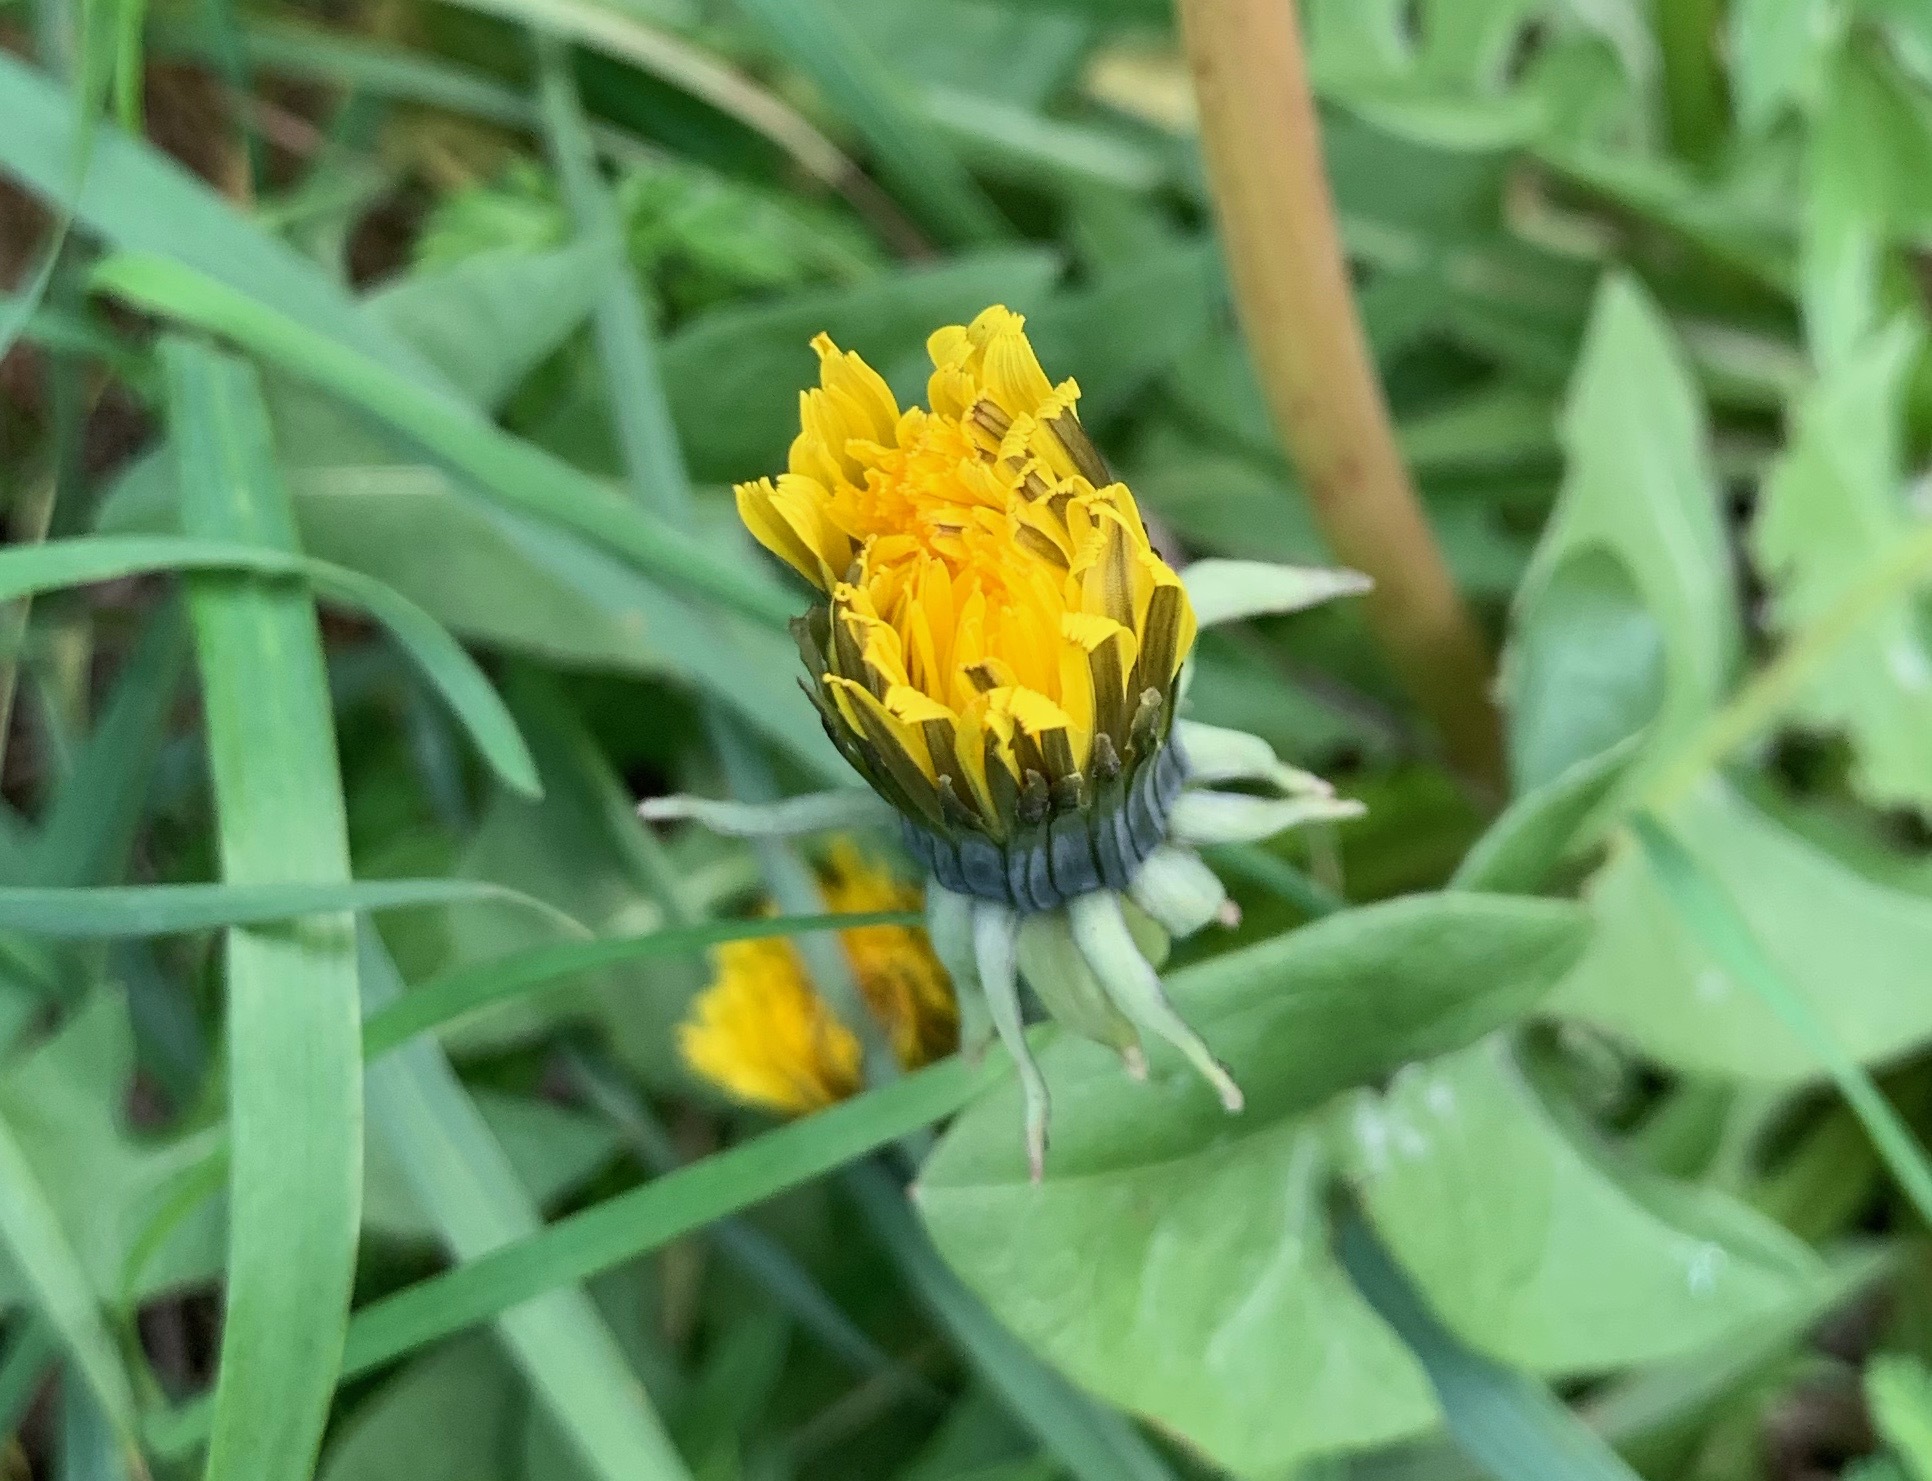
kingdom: Plantae
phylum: Tracheophyta
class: Magnoliopsida
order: Rosales
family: Urticaceae
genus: Urtica
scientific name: Urtica dioica
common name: Common nettle
